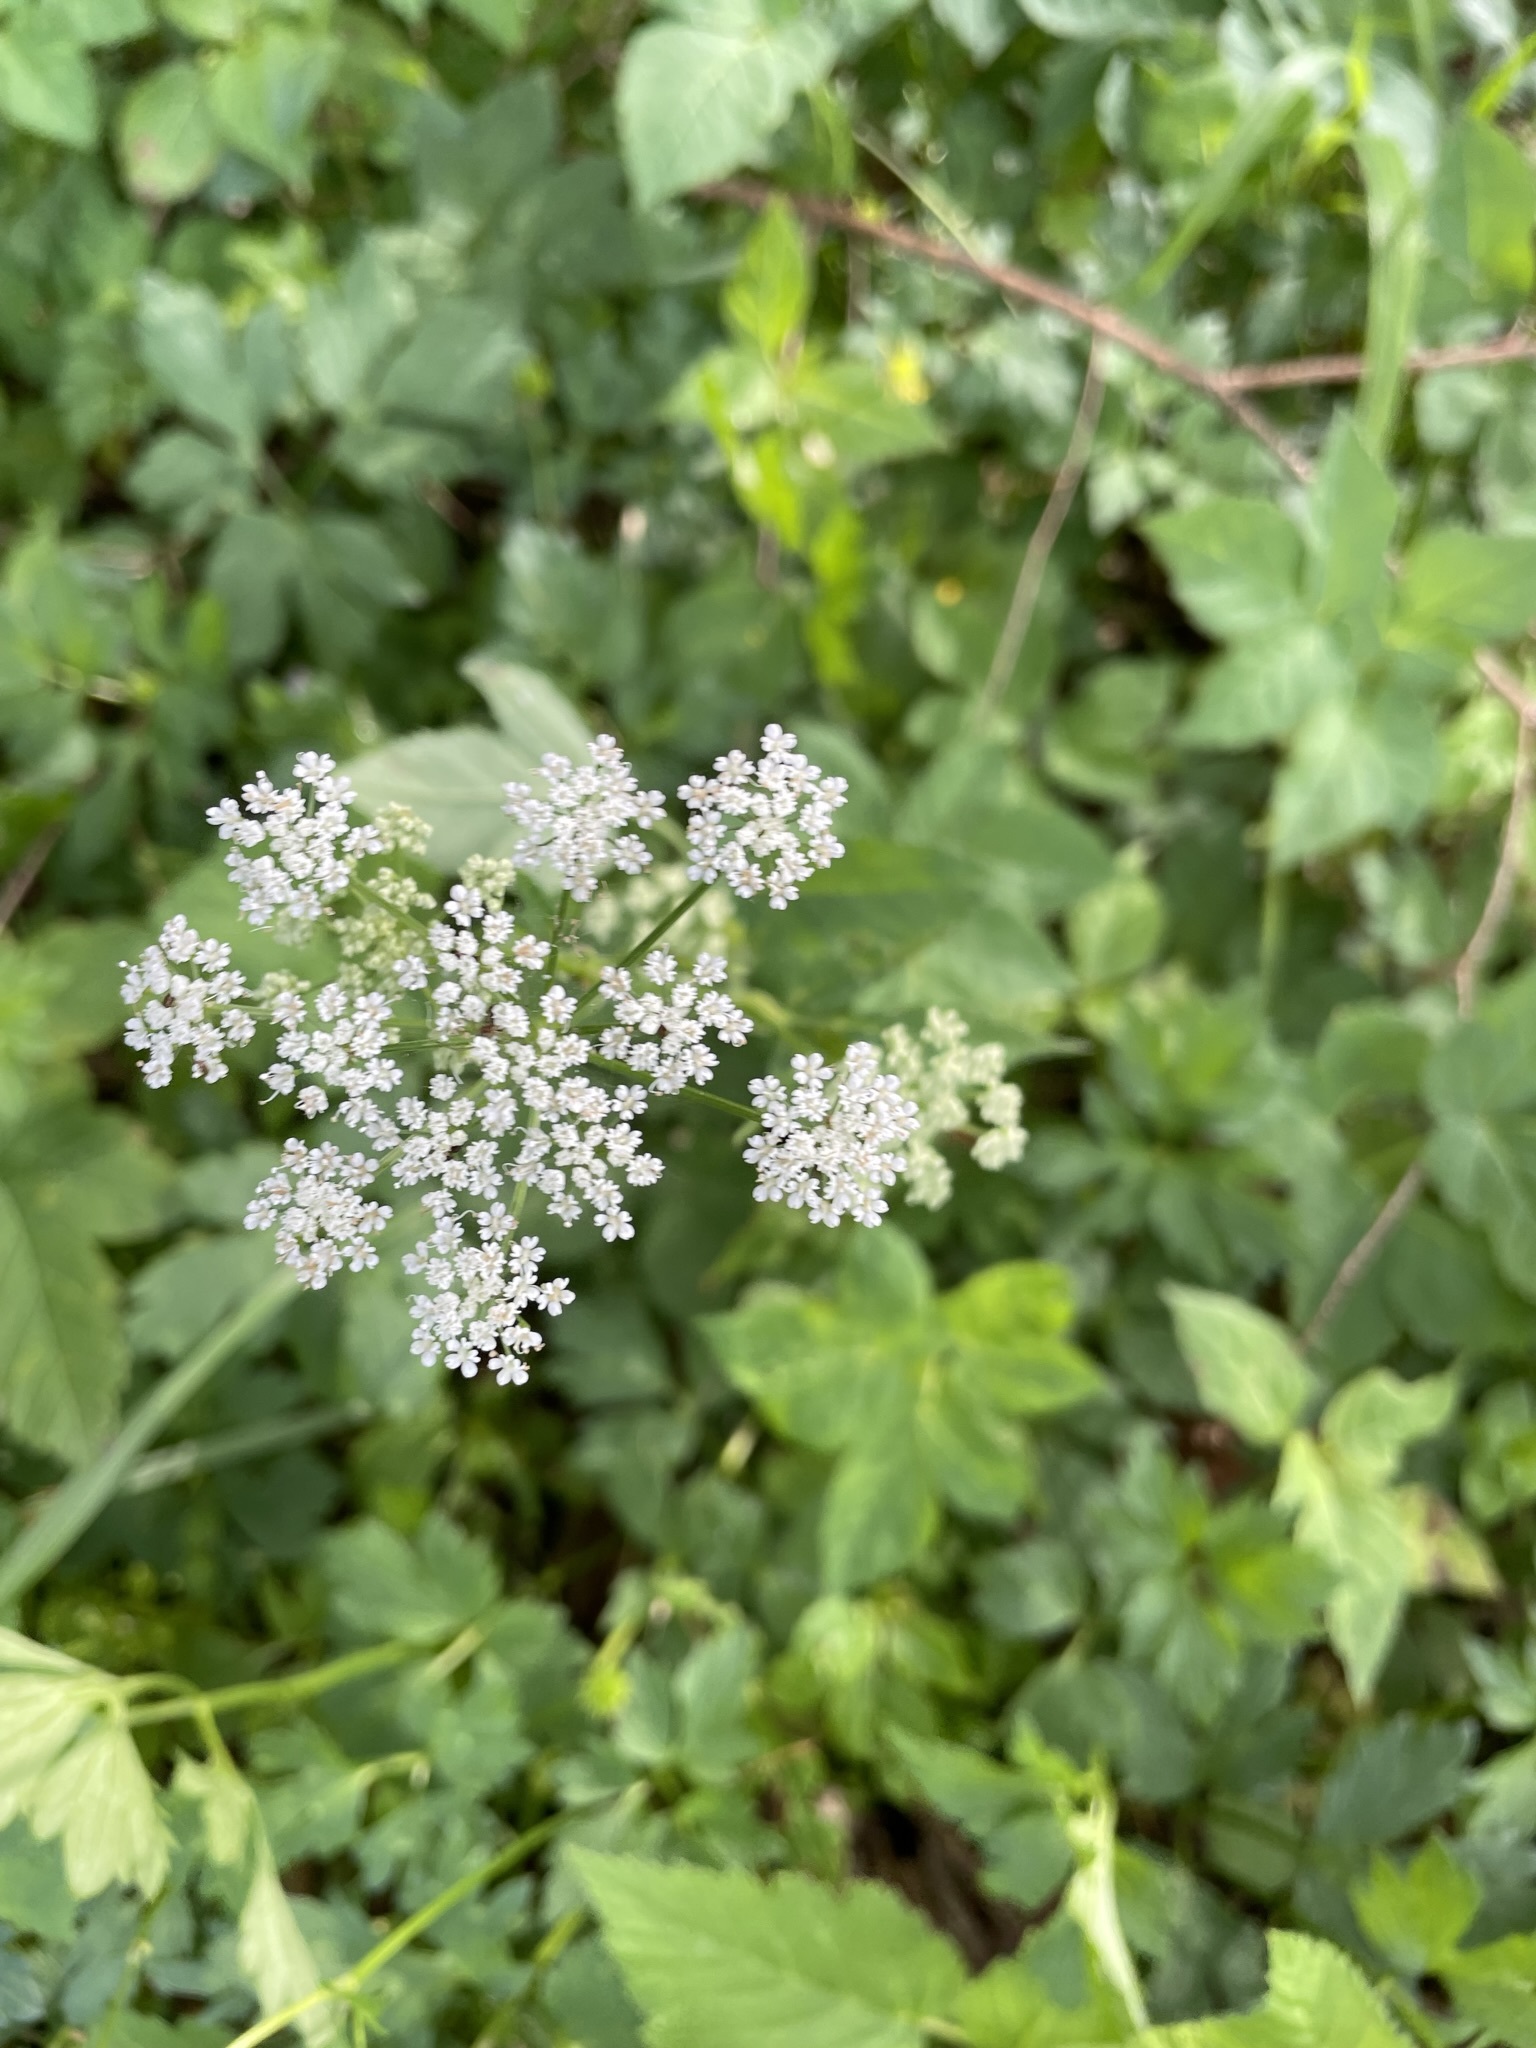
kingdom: Plantae
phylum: Tracheophyta
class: Magnoliopsida
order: Apiales
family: Apiaceae
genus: Aegopodium
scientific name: Aegopodium podagraria
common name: Ground-elder
